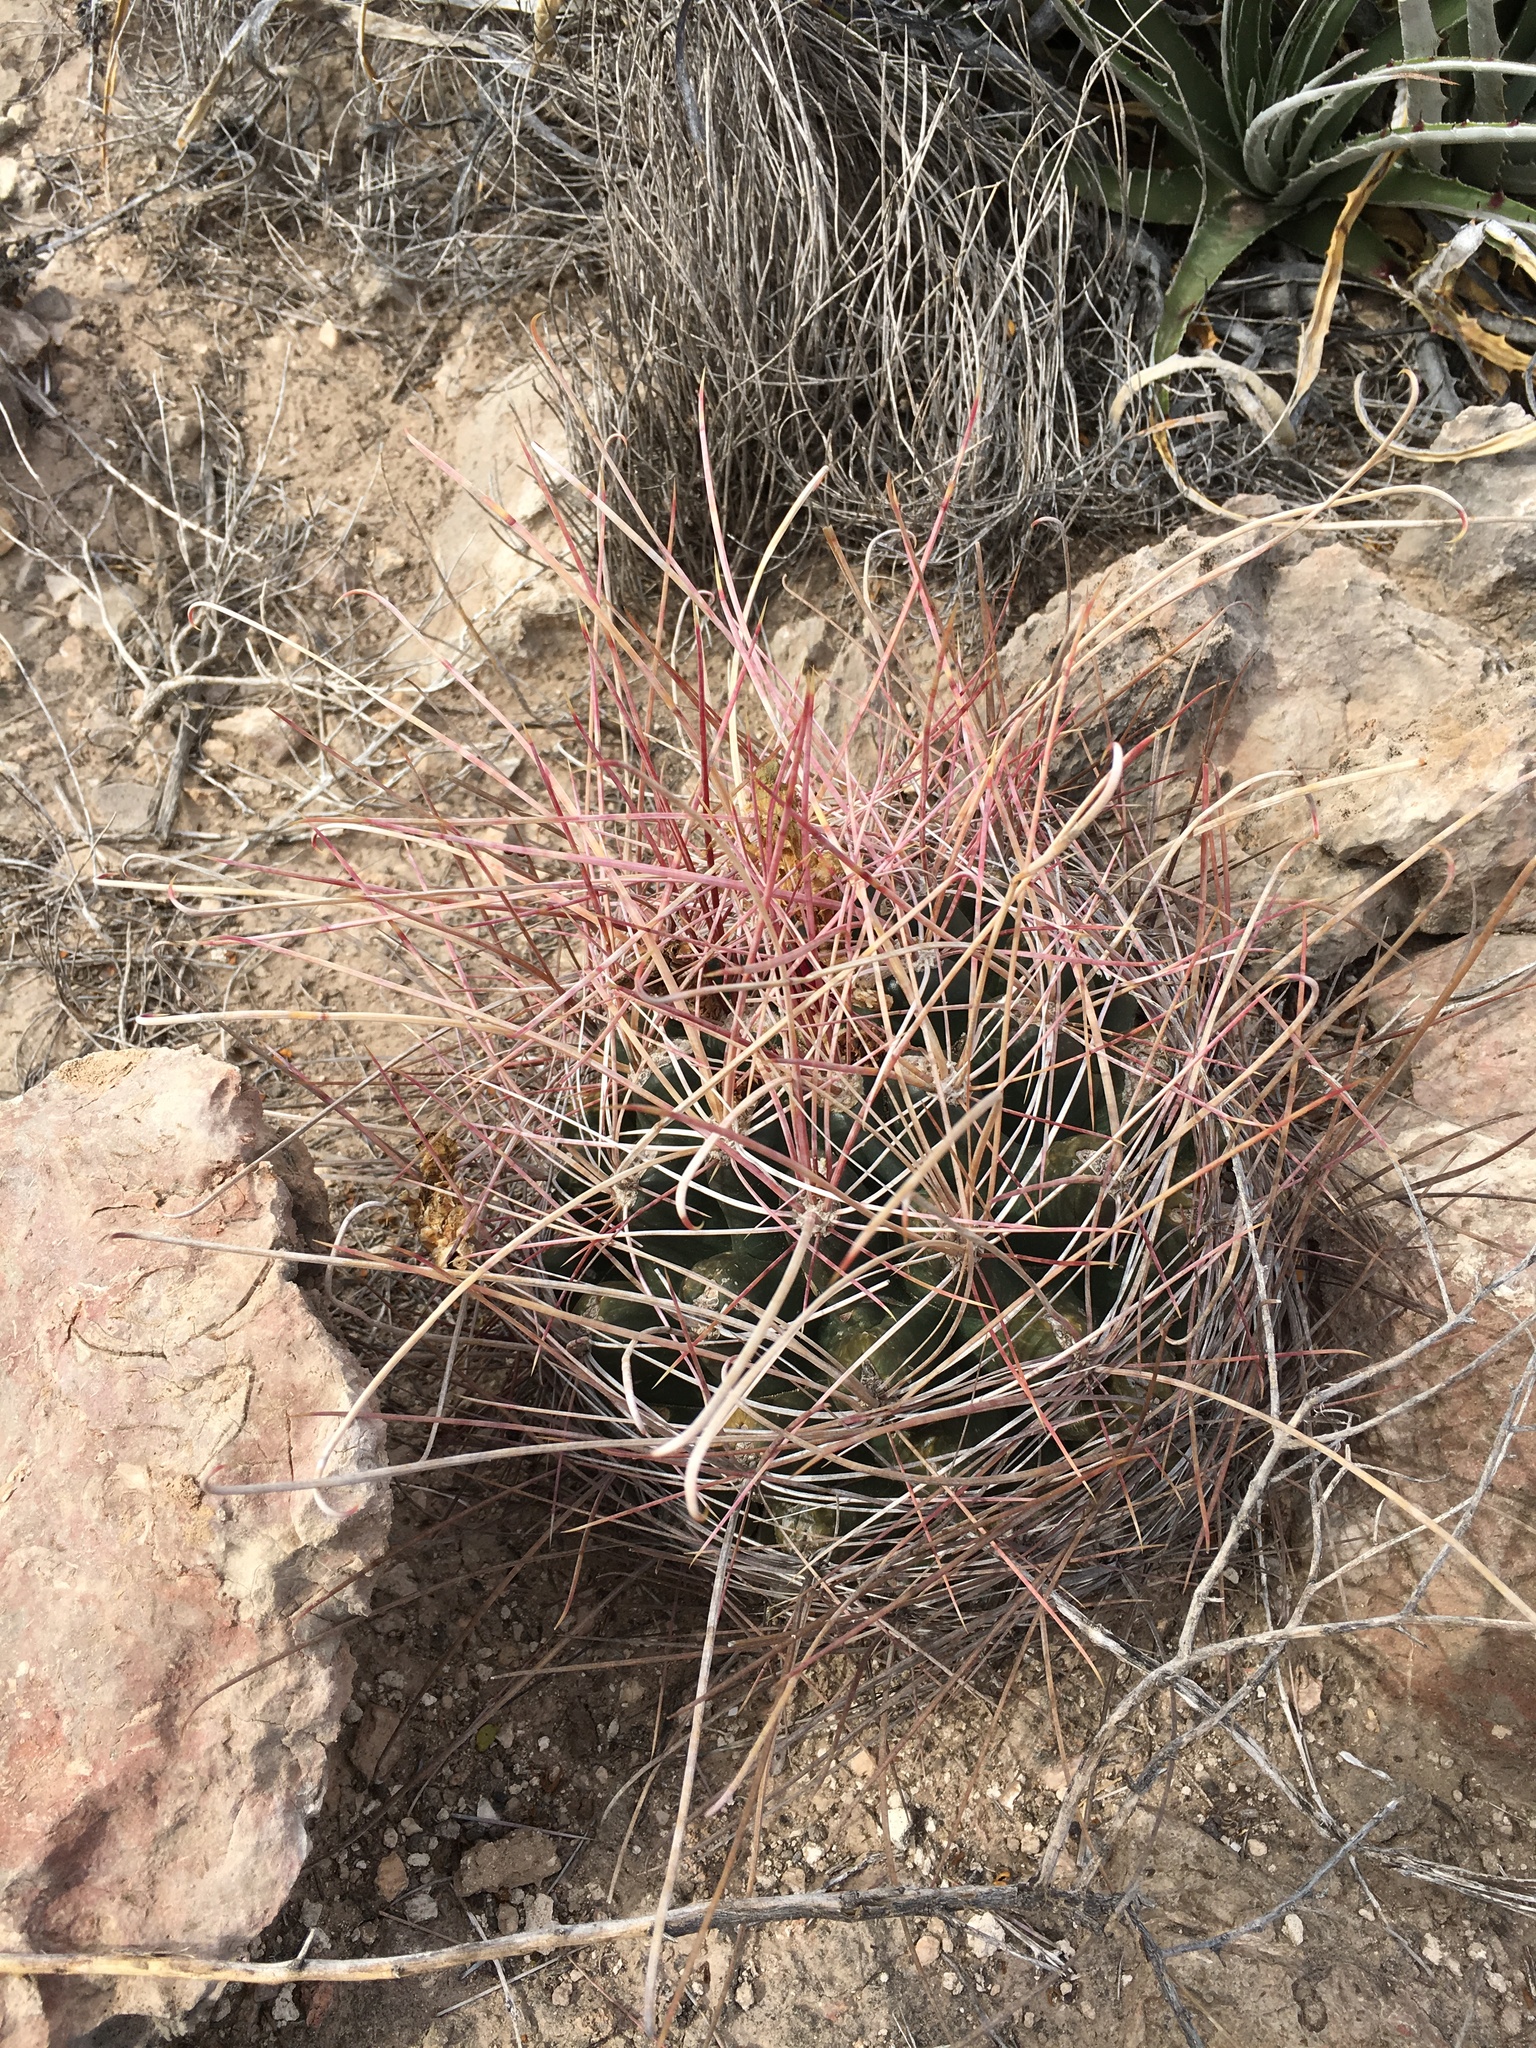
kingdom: Plantae
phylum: Tracheophyta
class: Magnoliopsida
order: Caryophyllales
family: Cactaceae
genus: Bisnaga
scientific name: Bisnaga hamatacantha
